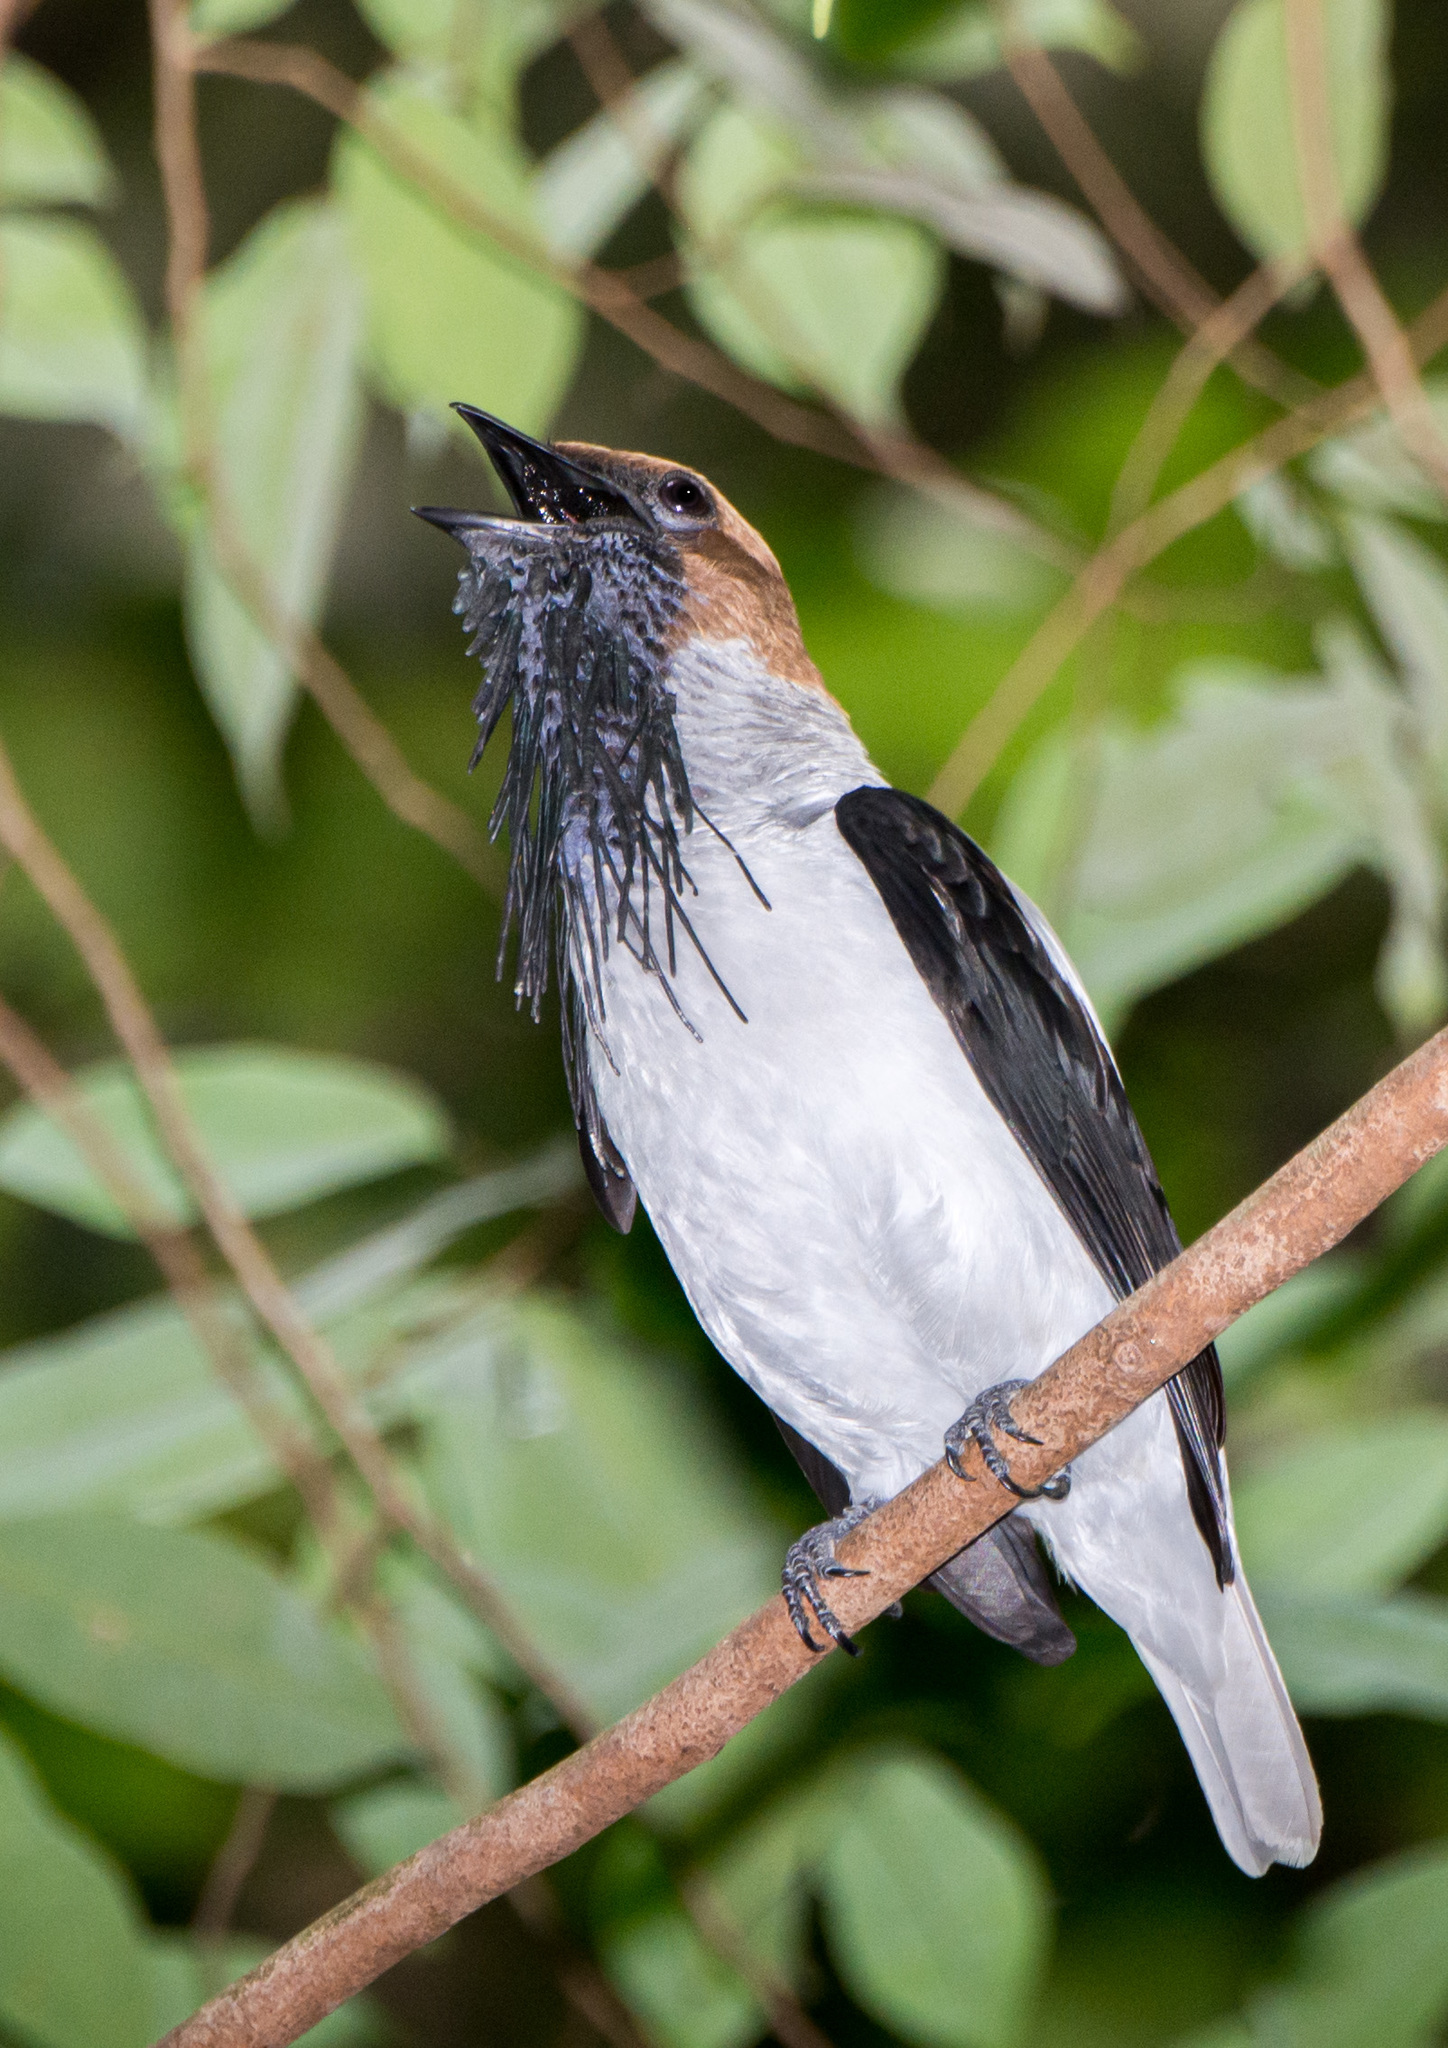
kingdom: Animalia
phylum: Chordata
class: Aves
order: Passeriformes
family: Cotingidae
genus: Procnias
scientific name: Procnias averano
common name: Bearded bellbird
